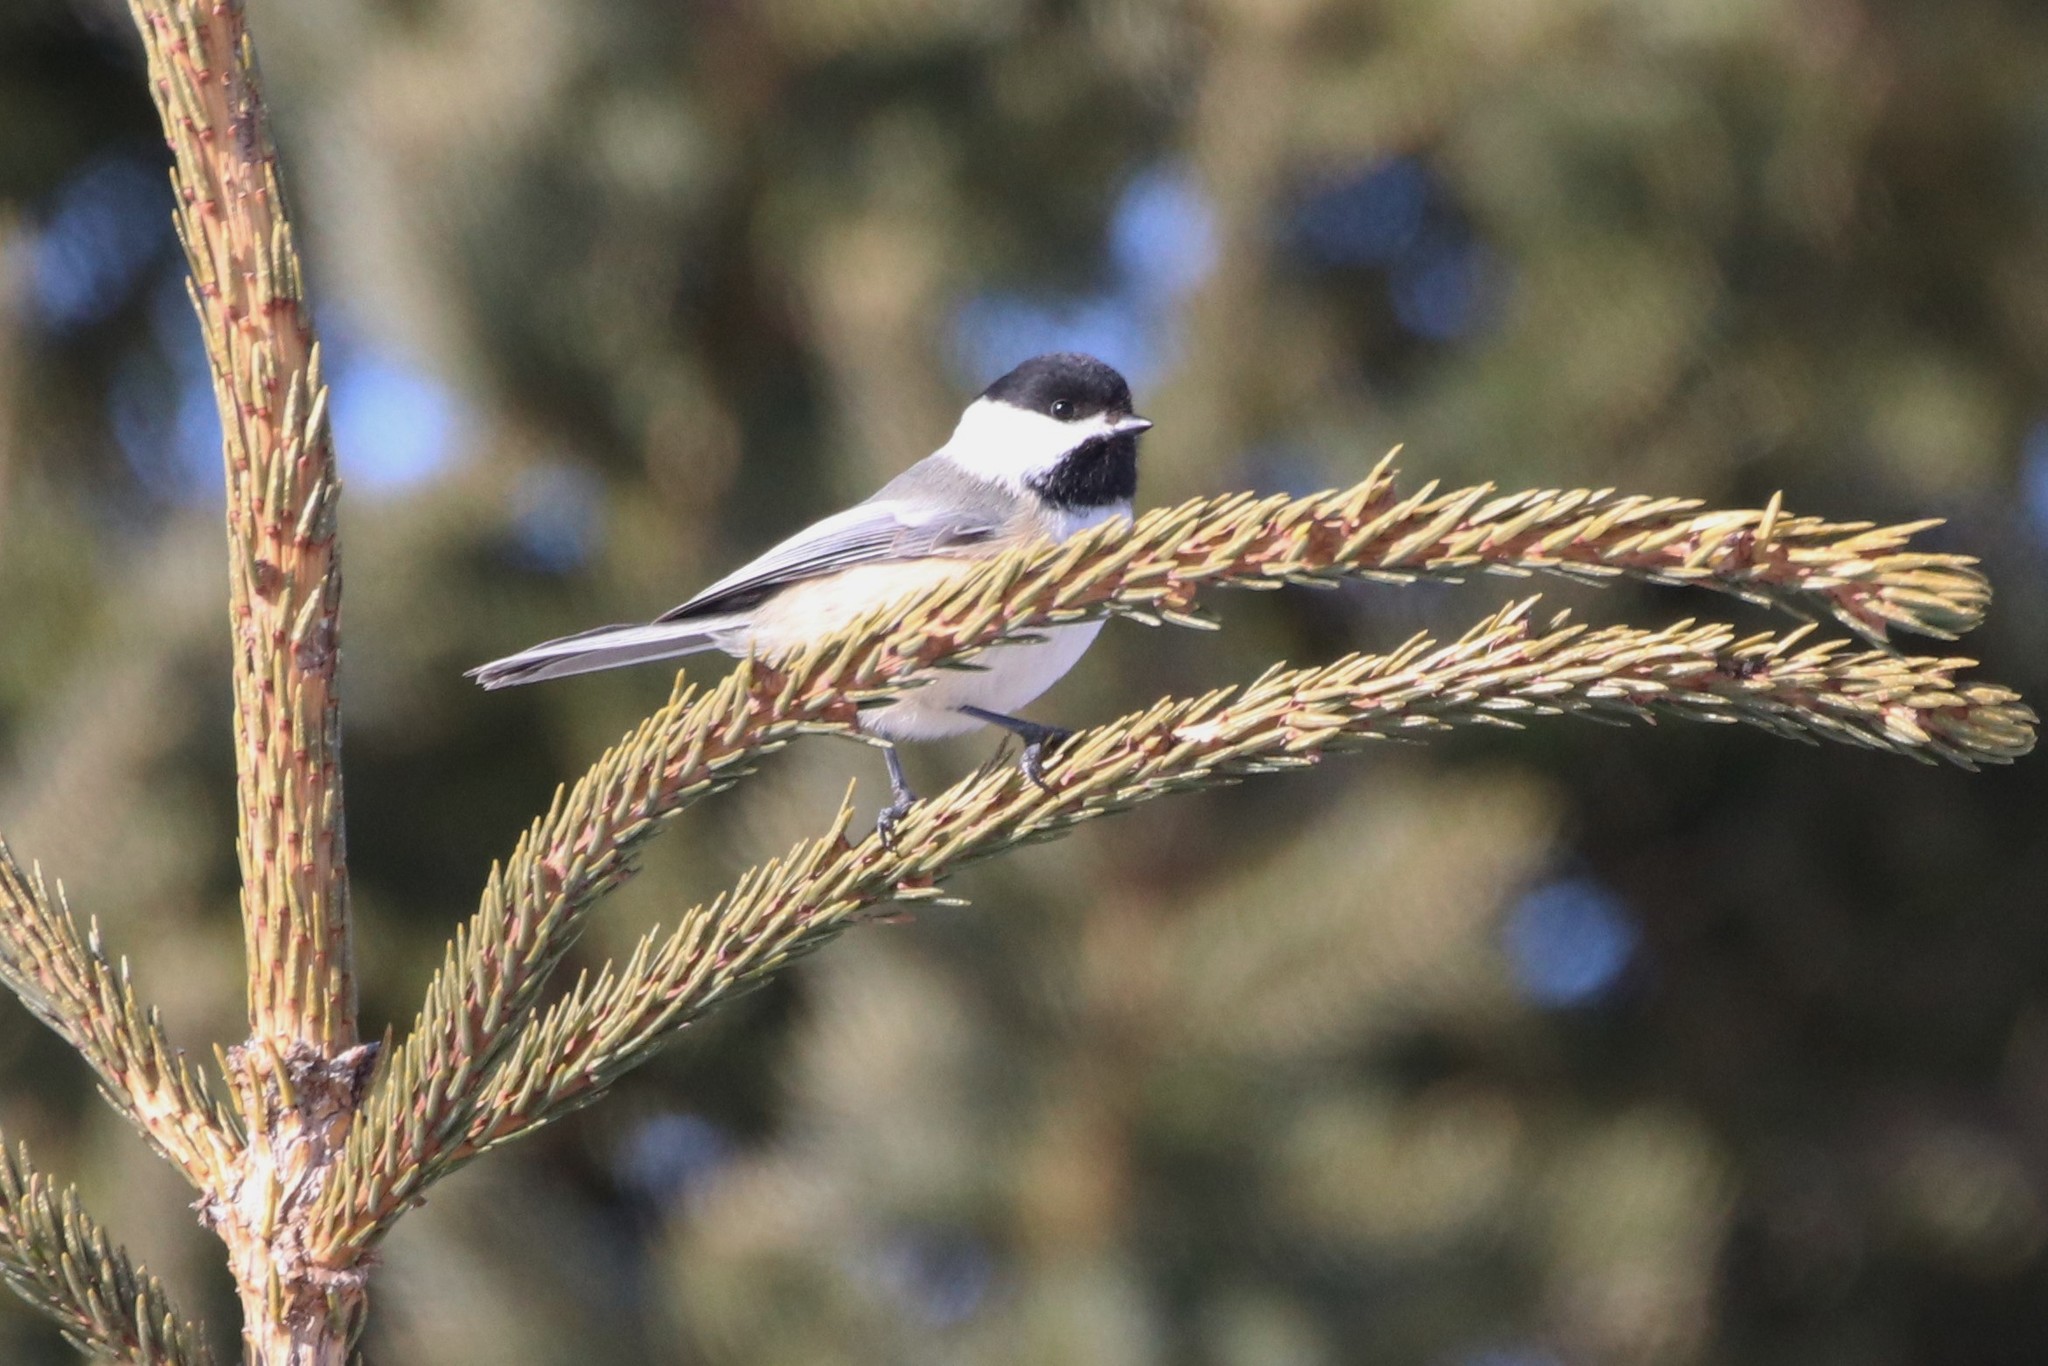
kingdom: Animalia
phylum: Chordata
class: Aves
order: Passeriformes
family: Paridae
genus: Poecile
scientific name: Poecile atricapillus
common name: Black-capped chickadee
